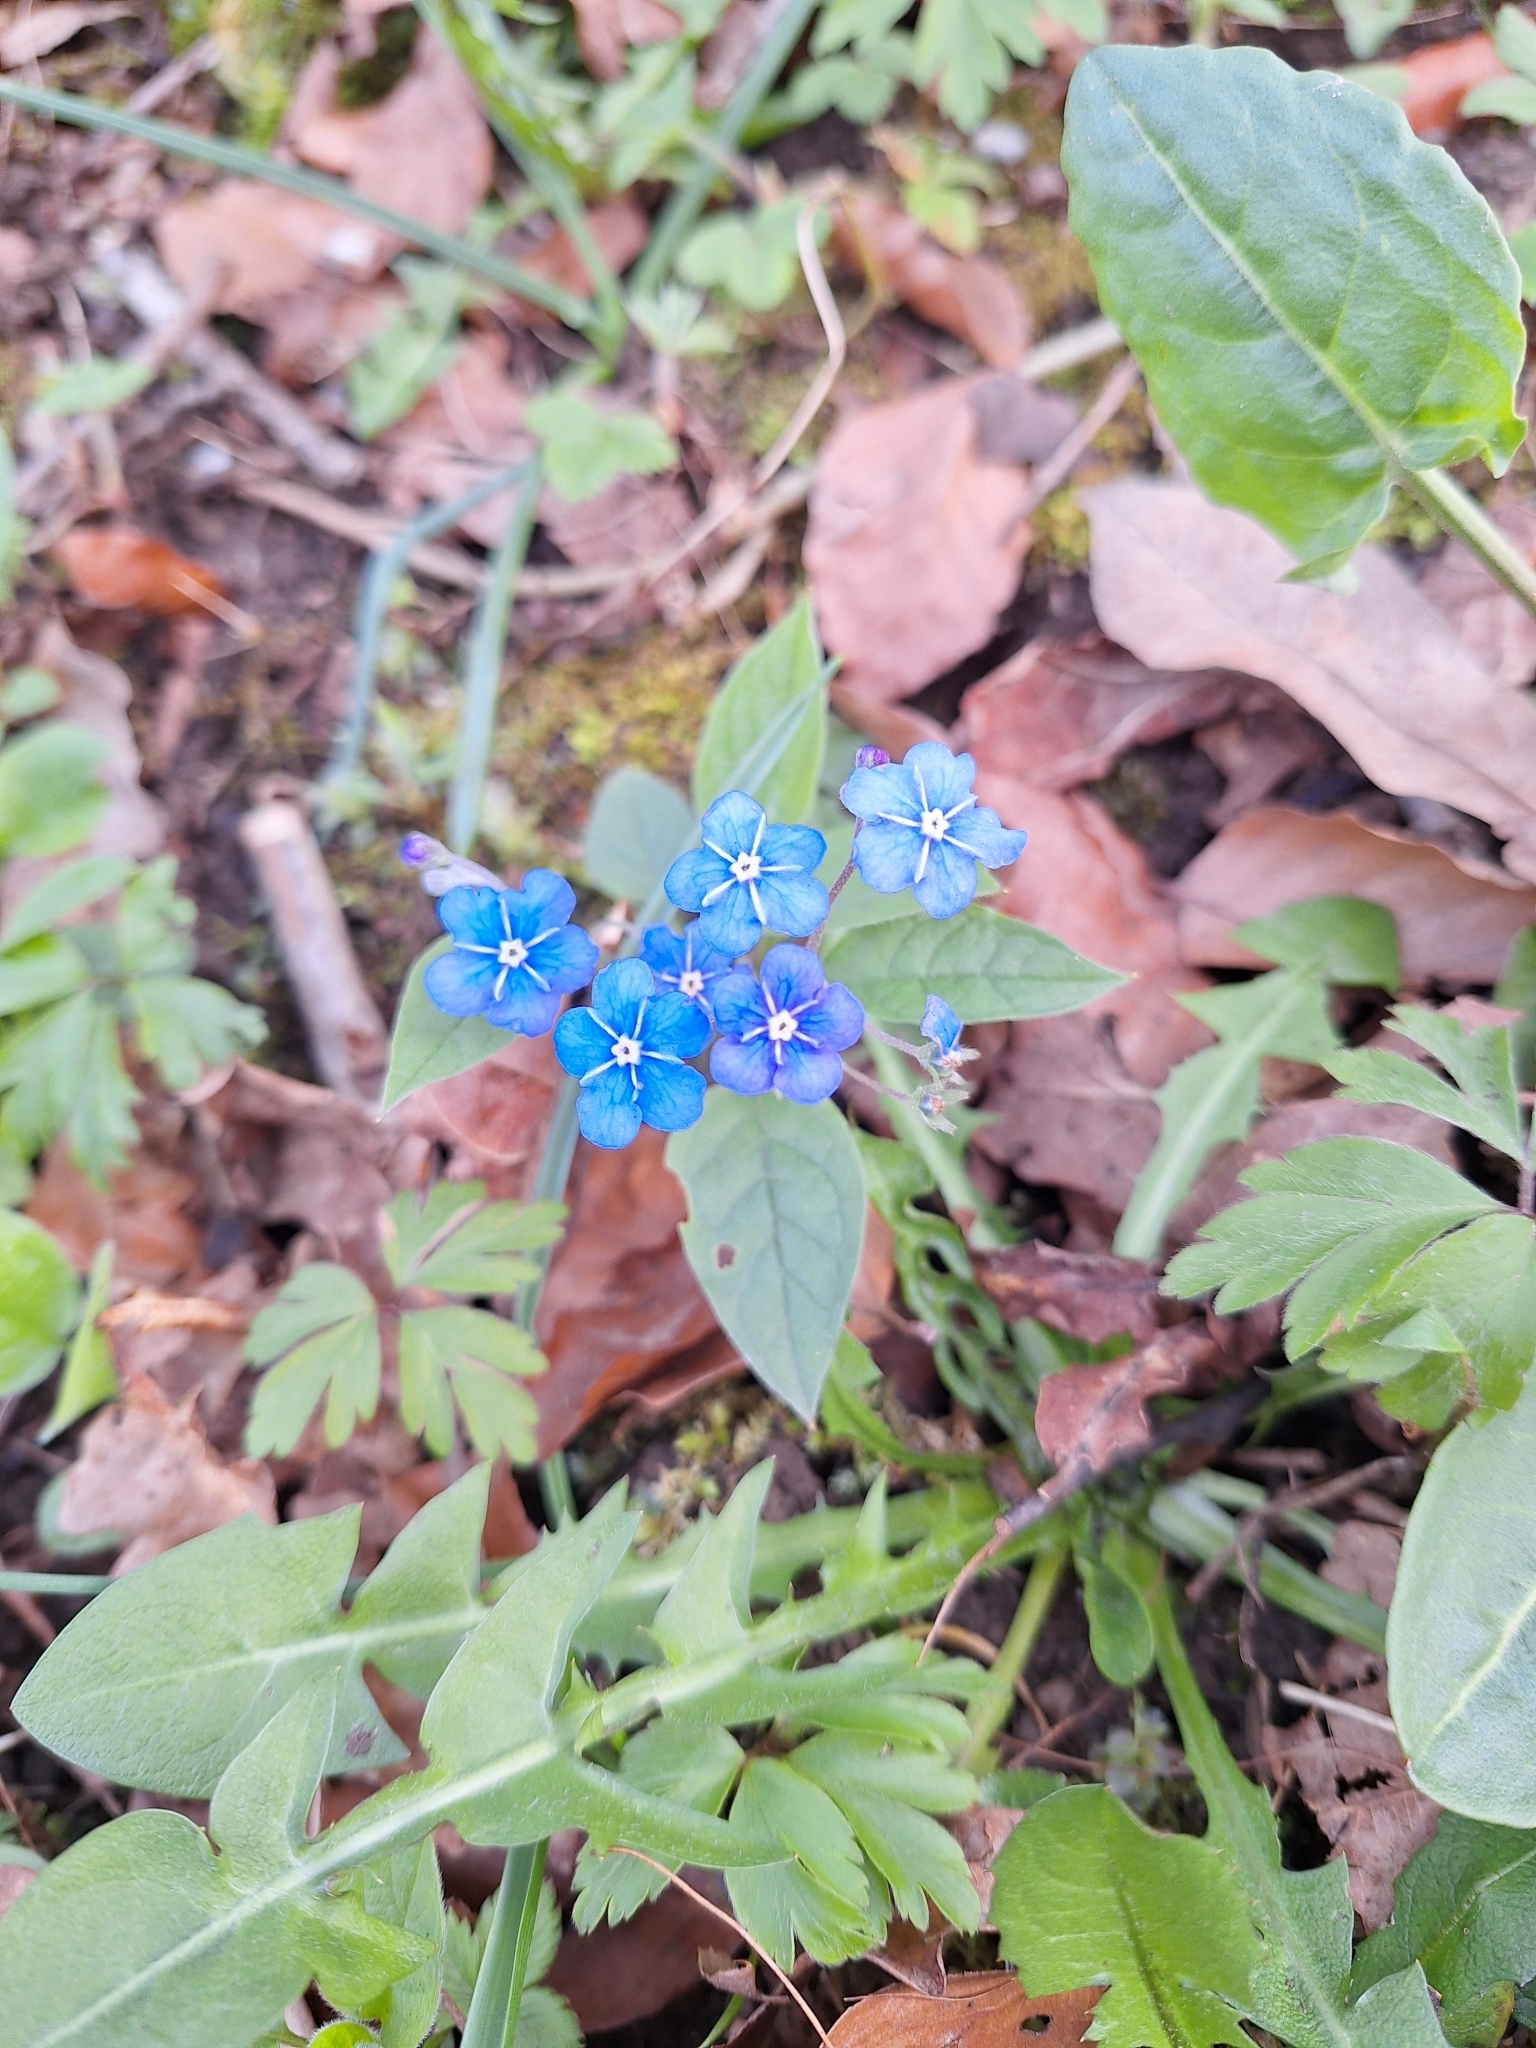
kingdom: Plantae
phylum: Tracheophyta
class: Magnoliopsida
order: Boraginales
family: Boraginaceae
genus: Omphalodes
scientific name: Omphalodes verna
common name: Blue-eyed-mary
